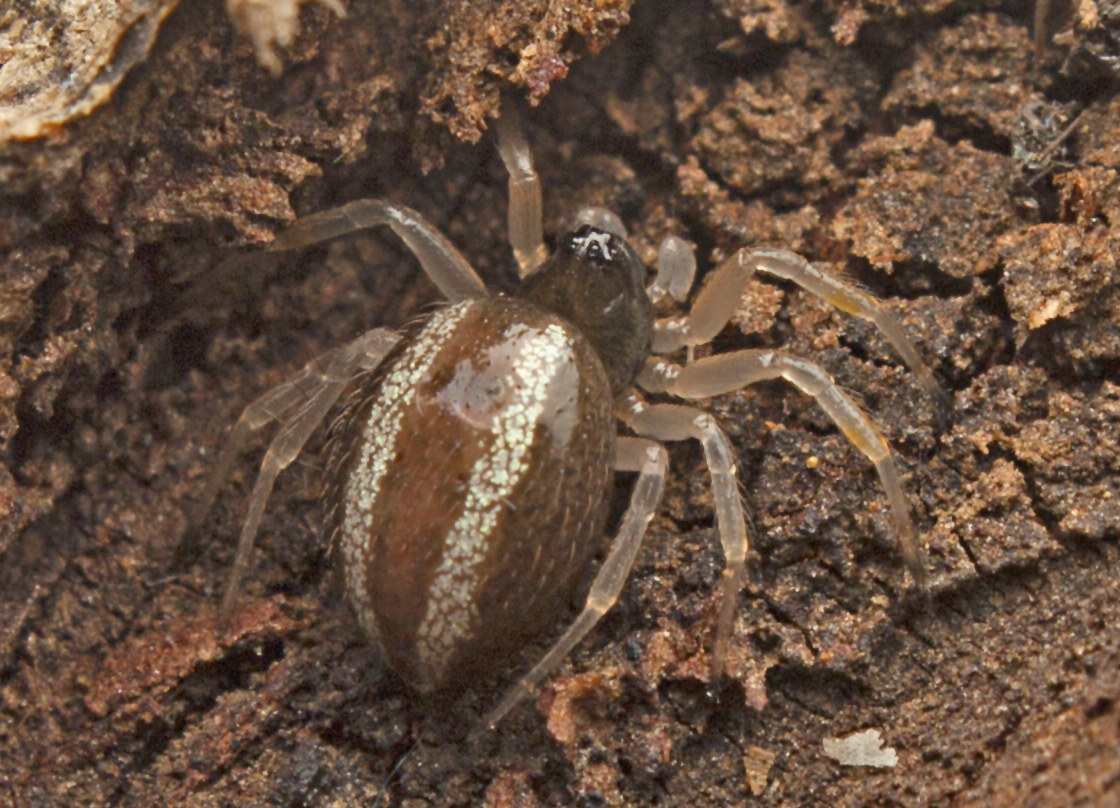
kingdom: Animalia
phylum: Arthropoda
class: Arachnida
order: Araneae
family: Theridiidae
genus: Euryopis
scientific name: Euryopis umbilicata
